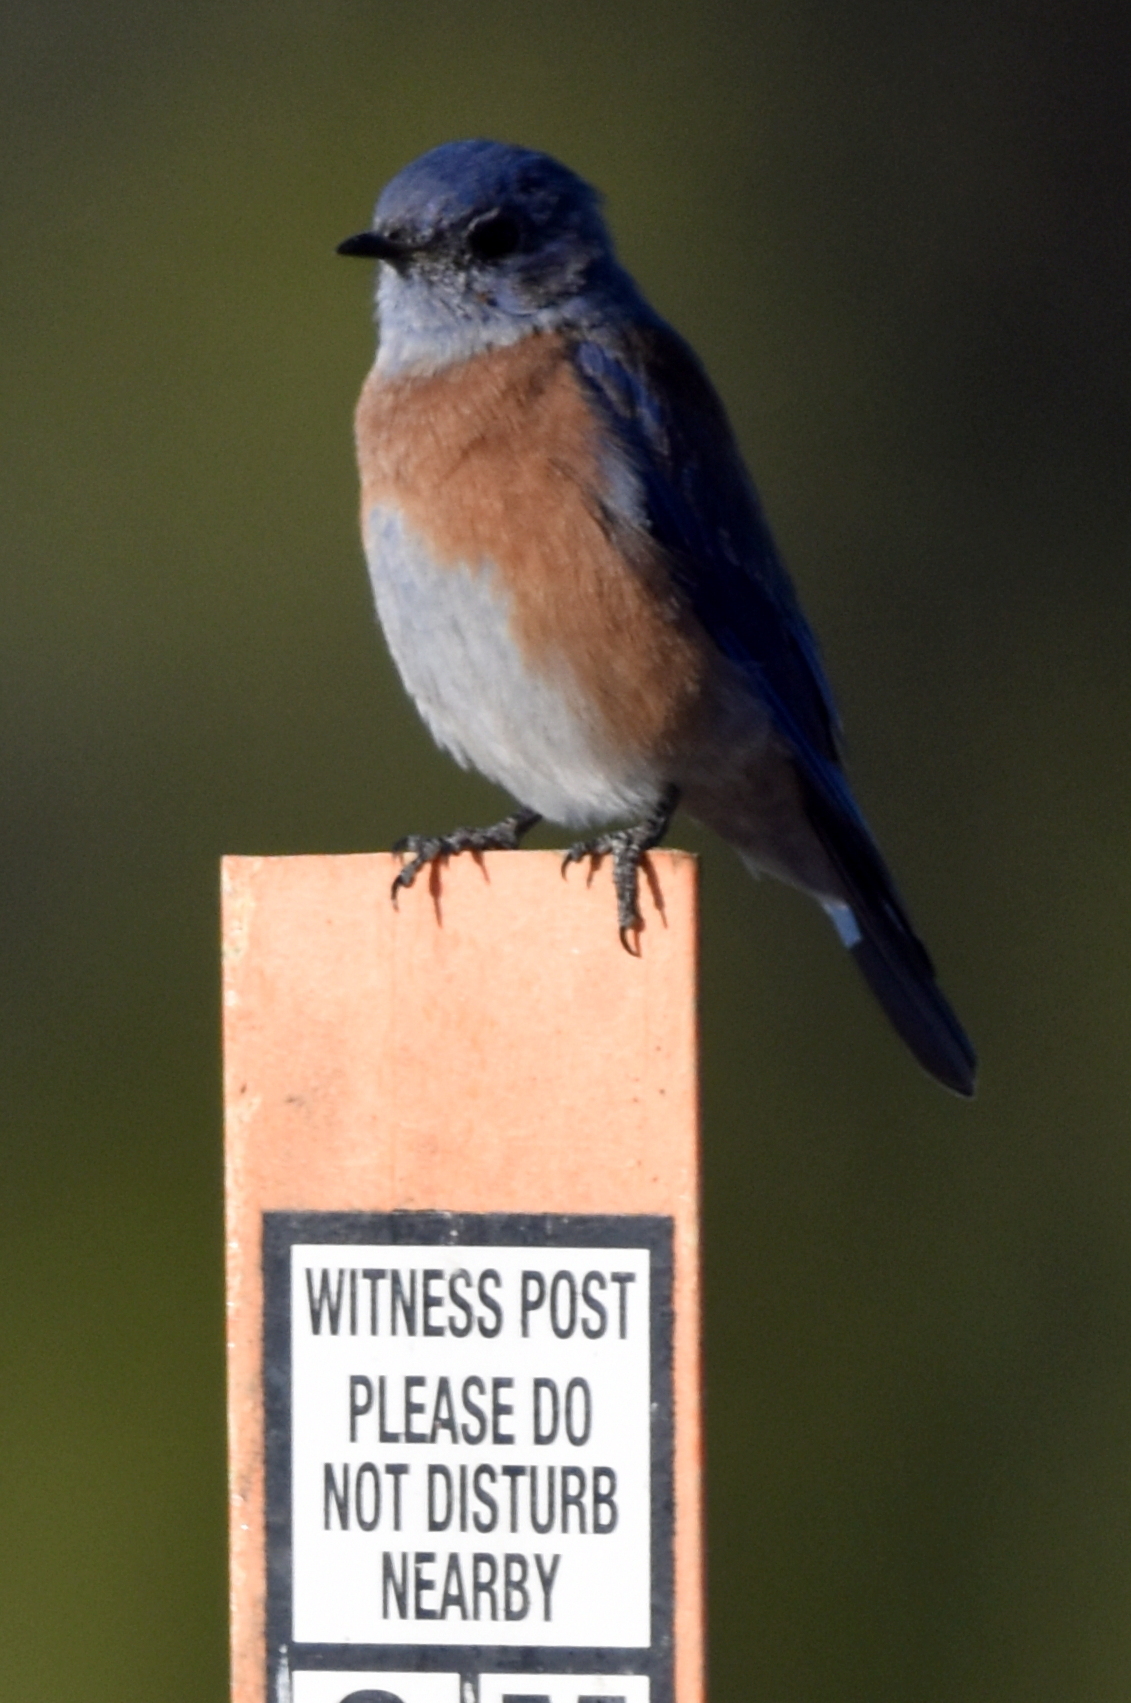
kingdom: Animalia
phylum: Chordata
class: Aves
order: Passeriformes
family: Turdidae
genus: Sialia
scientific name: Sialia mexicana
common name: Western bluebird
